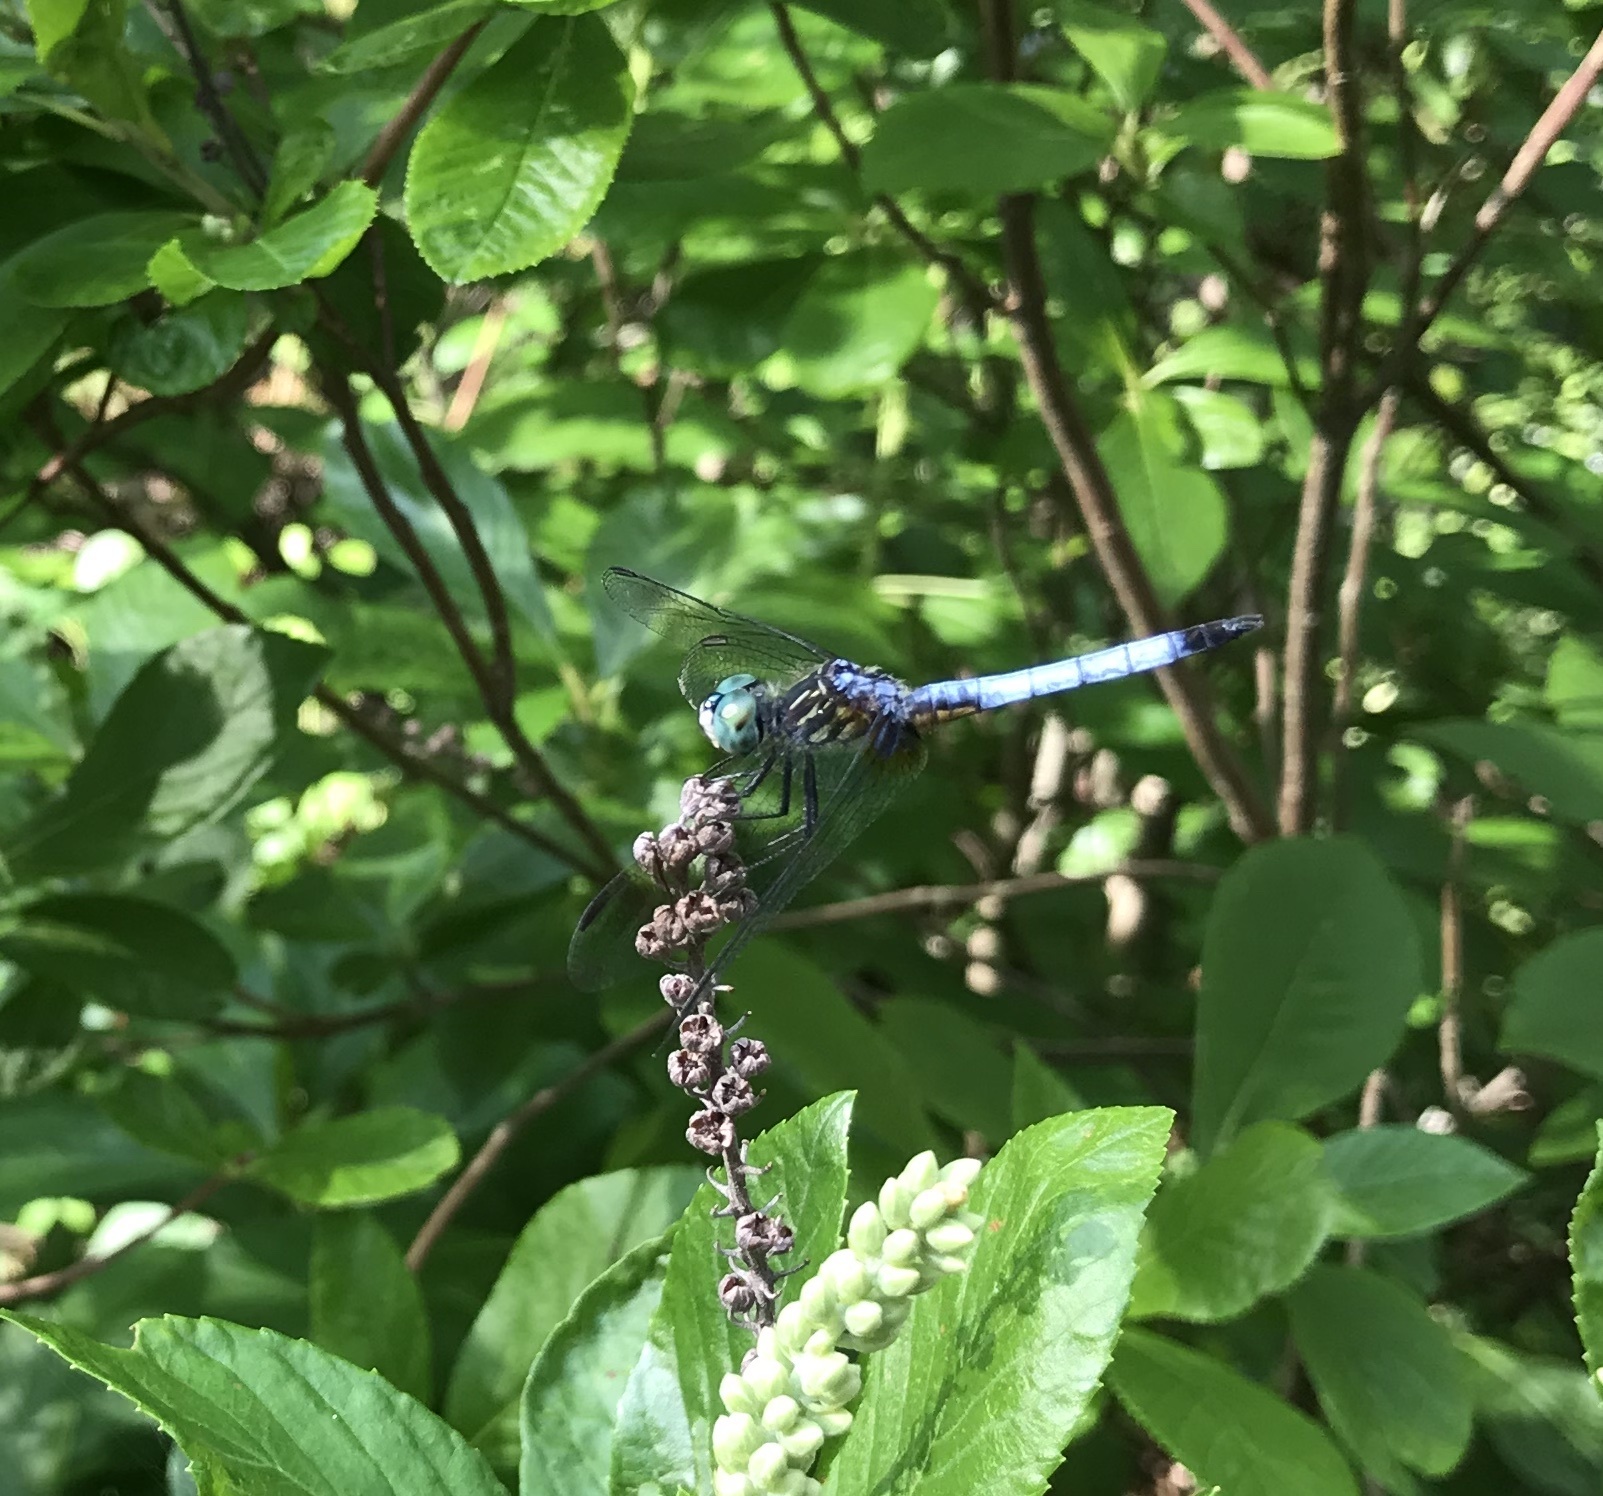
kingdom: Animalia
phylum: Arthropoda
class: Insecta
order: Odonata
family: Libellulidae
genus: Pachydiplax
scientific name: Pachydiplax longipennis
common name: Blue dasher
